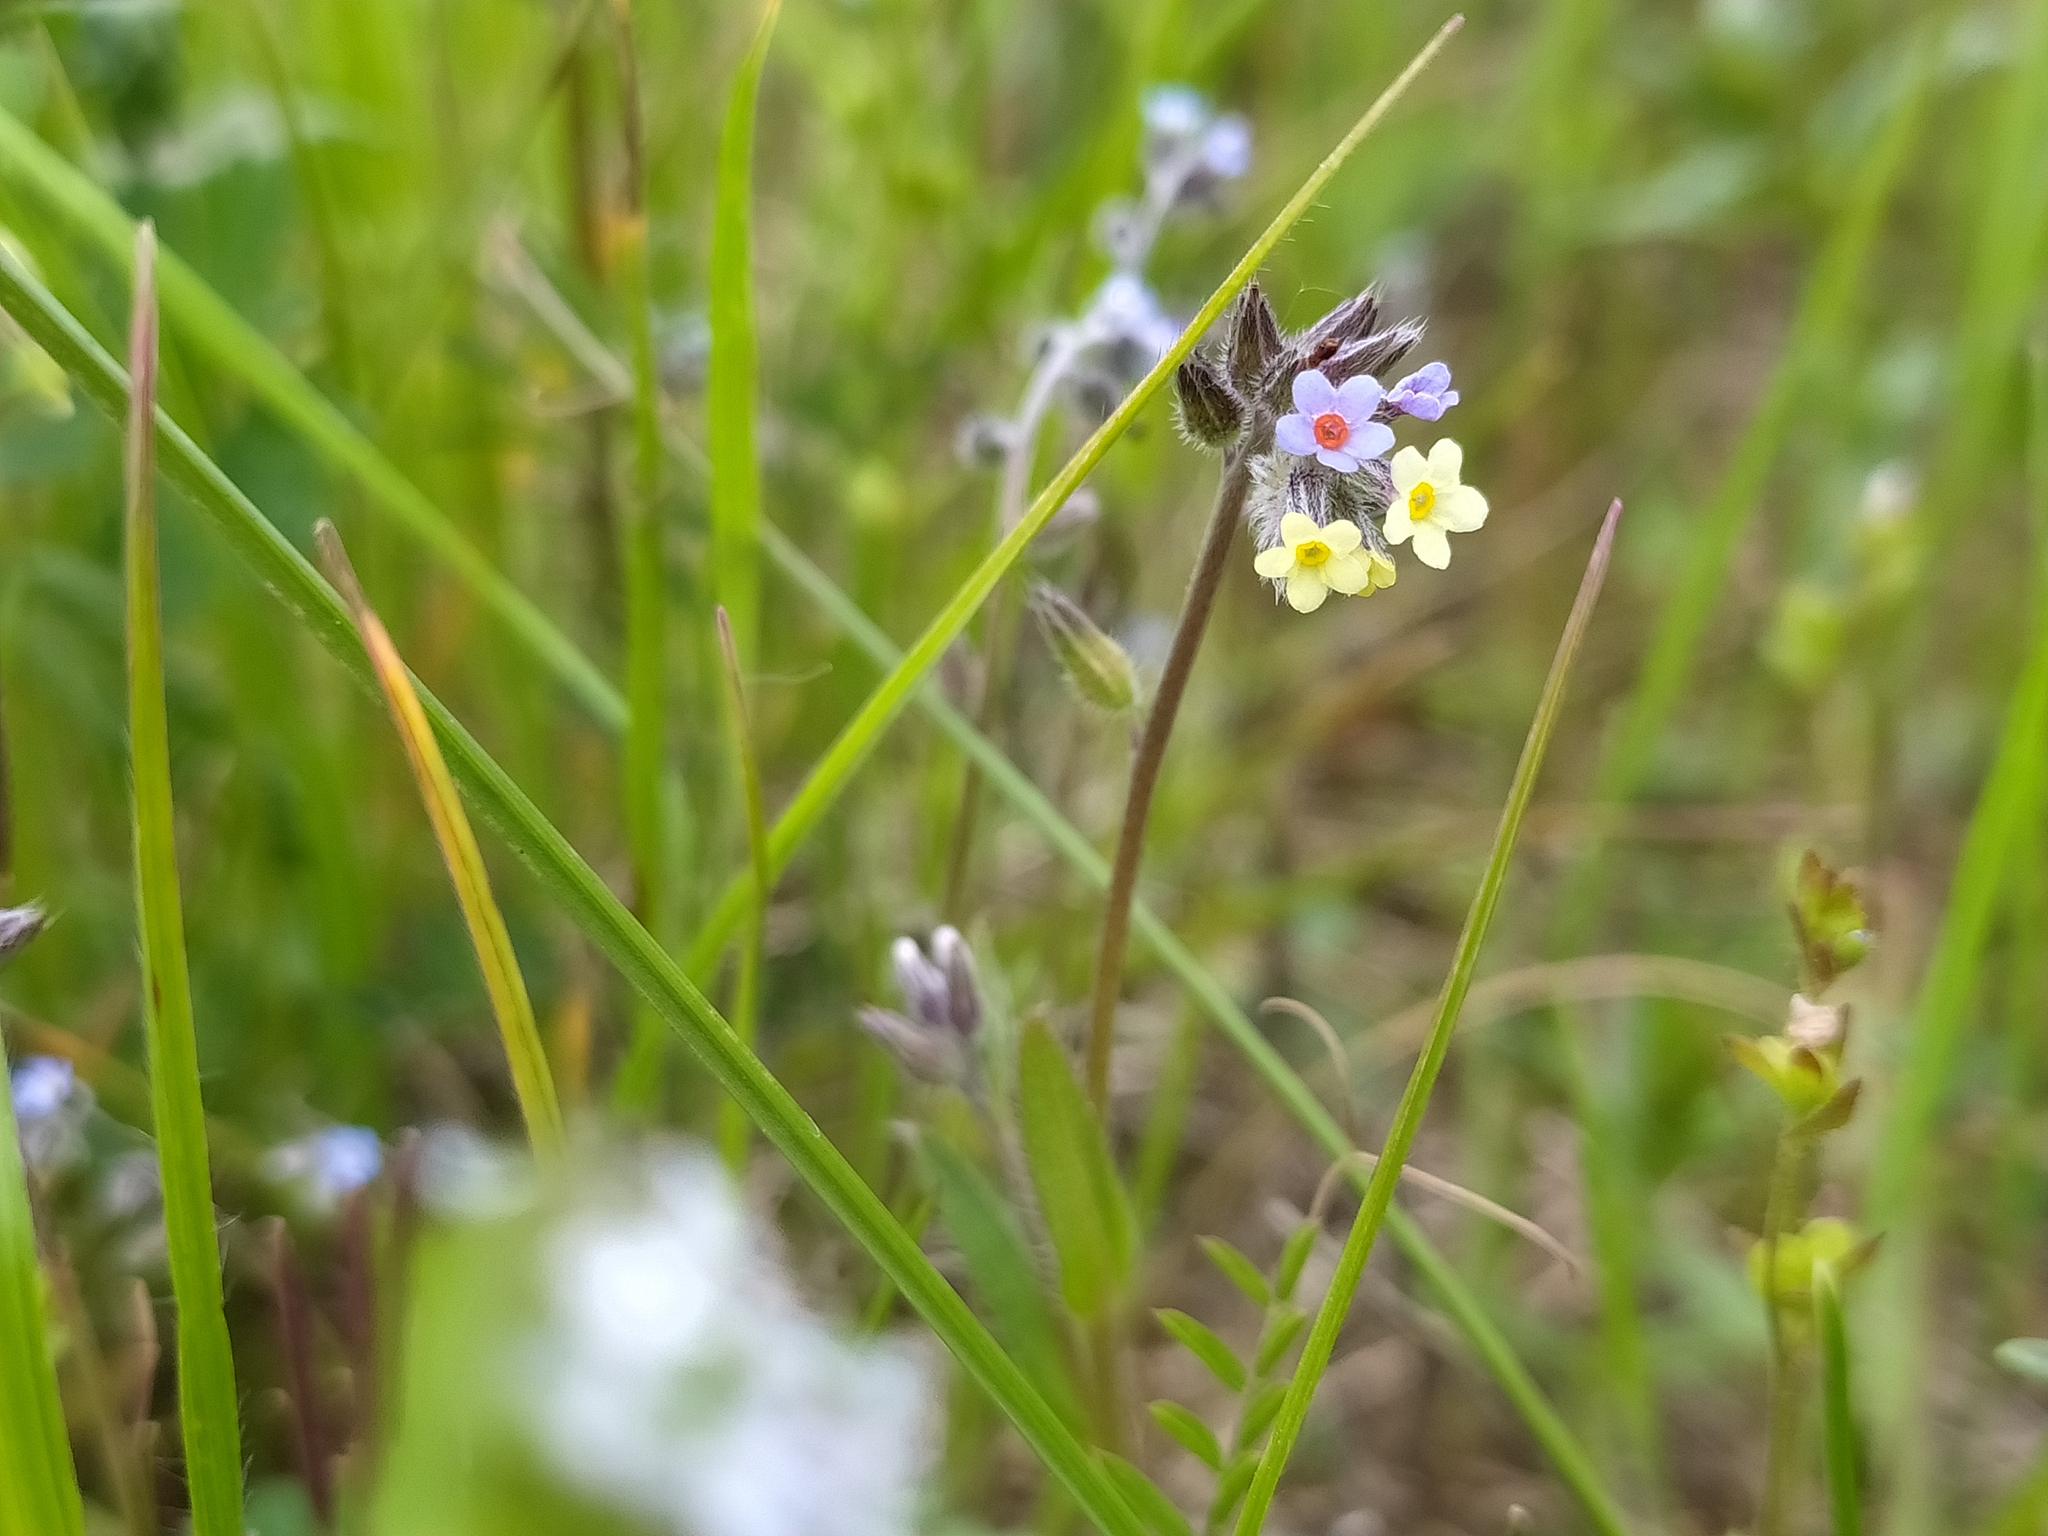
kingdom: Plantae
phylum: Tracheophyta
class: Magnoliopsida
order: Boraginales
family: Boraginaceae
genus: Myosotis
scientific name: Myosotis discolor
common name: Changing forget-me-not
